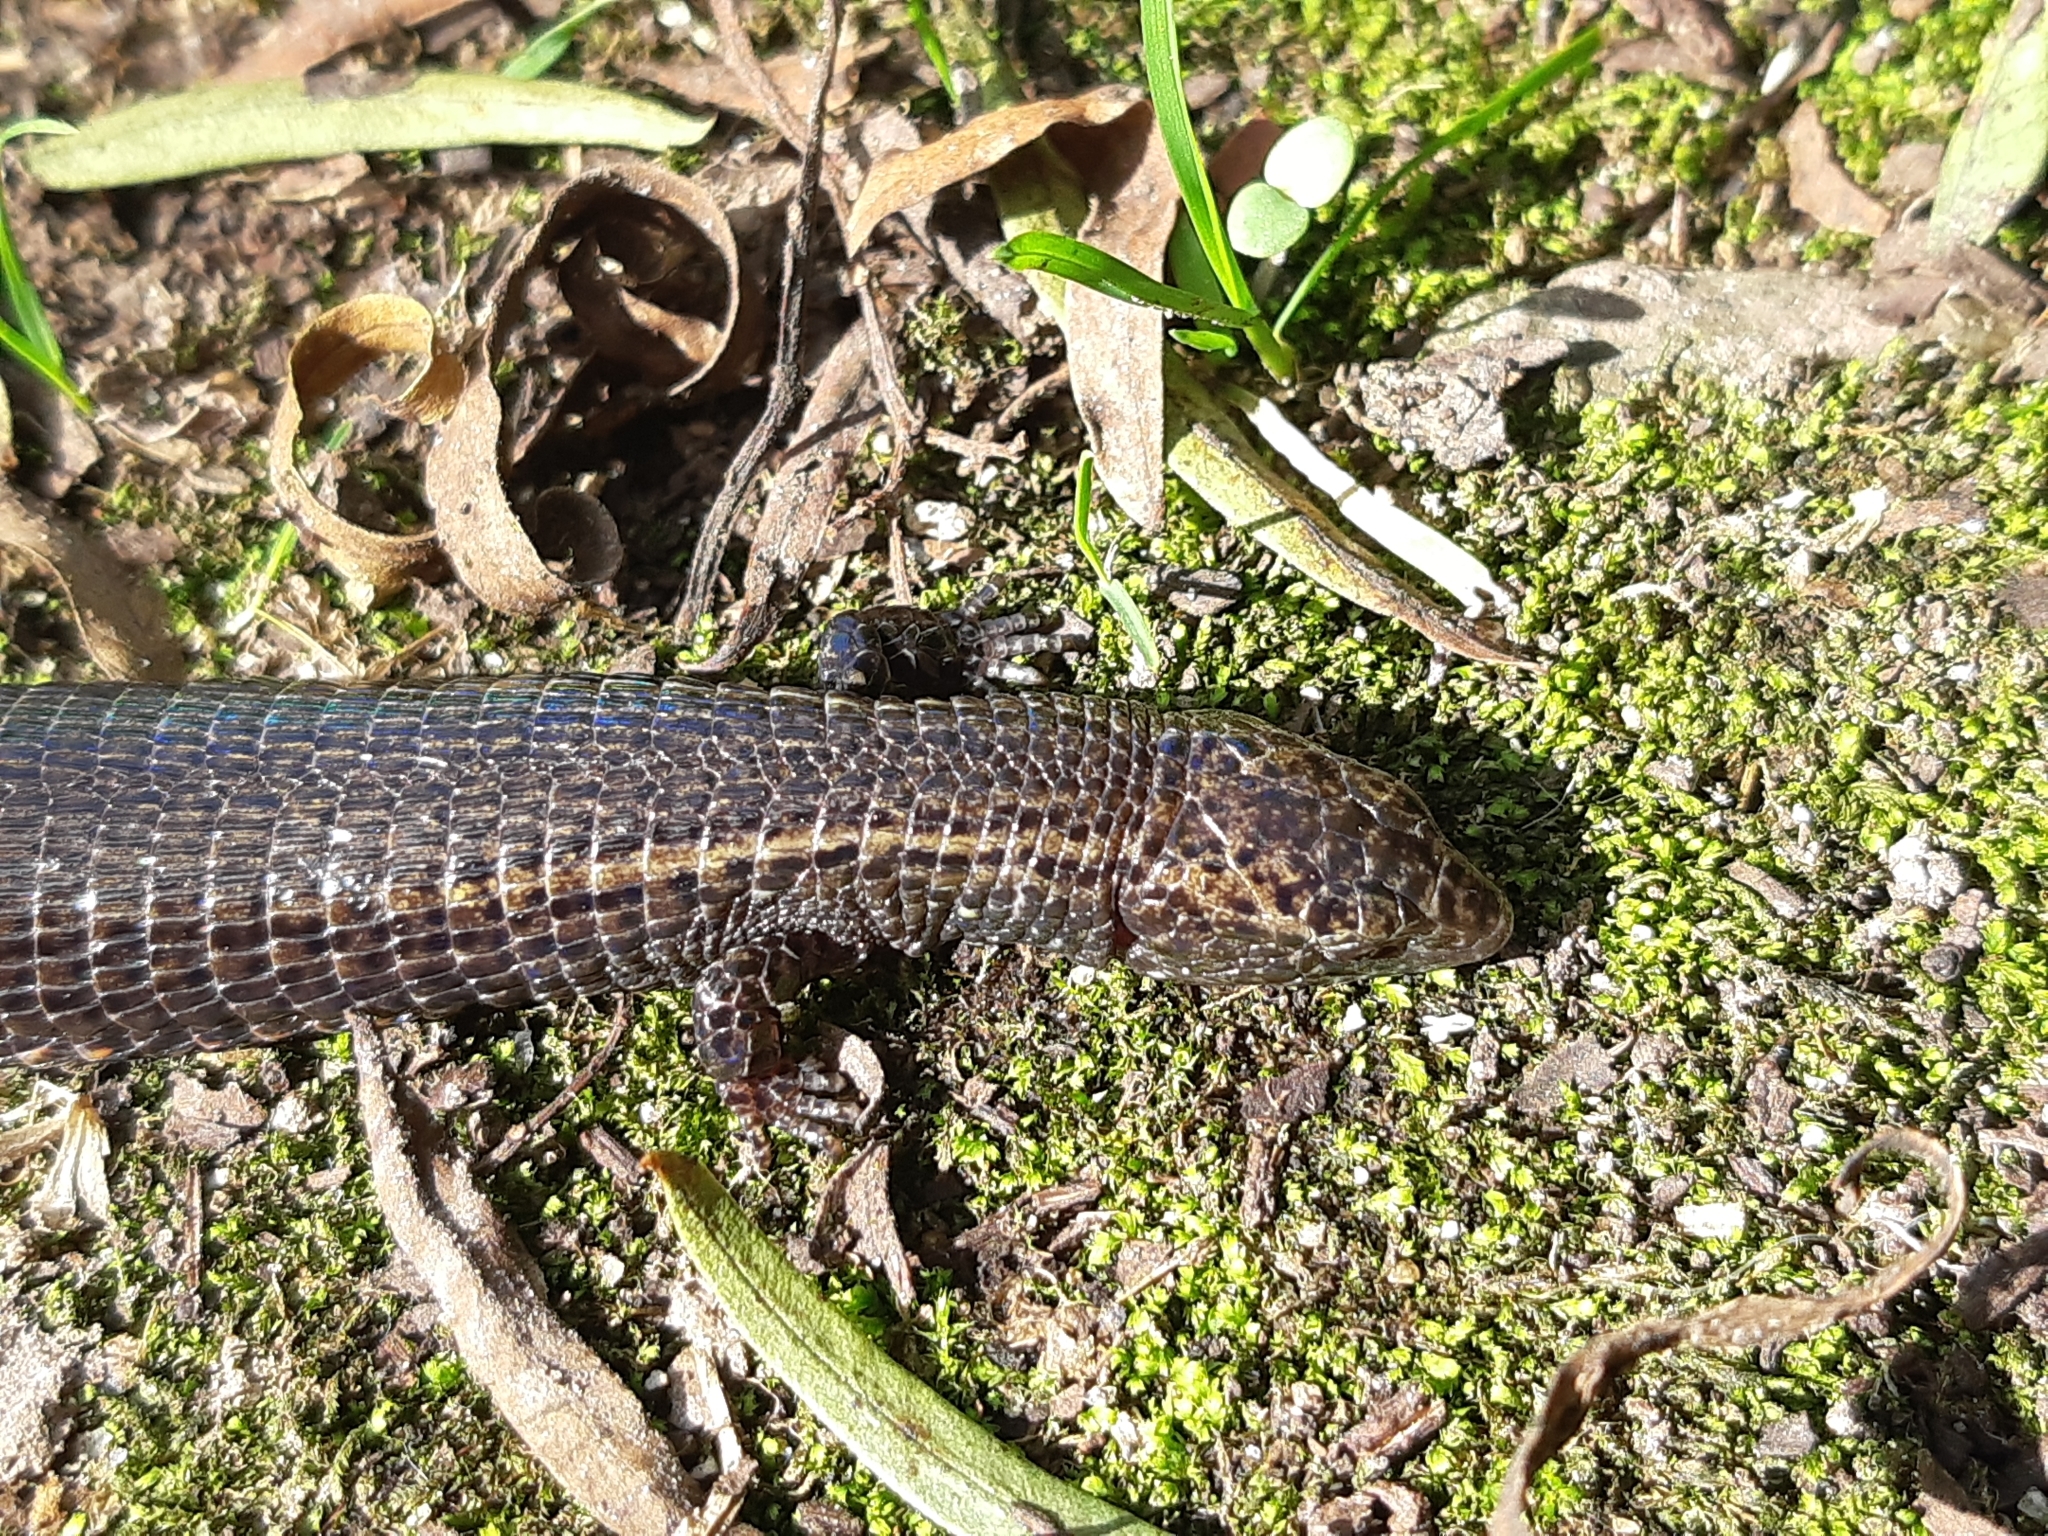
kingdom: Animalia
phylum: Chordata
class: Squamata
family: Gymnophthalmidae
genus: Riama
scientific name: Riama unicolor
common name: Drab lightbulb lizard
